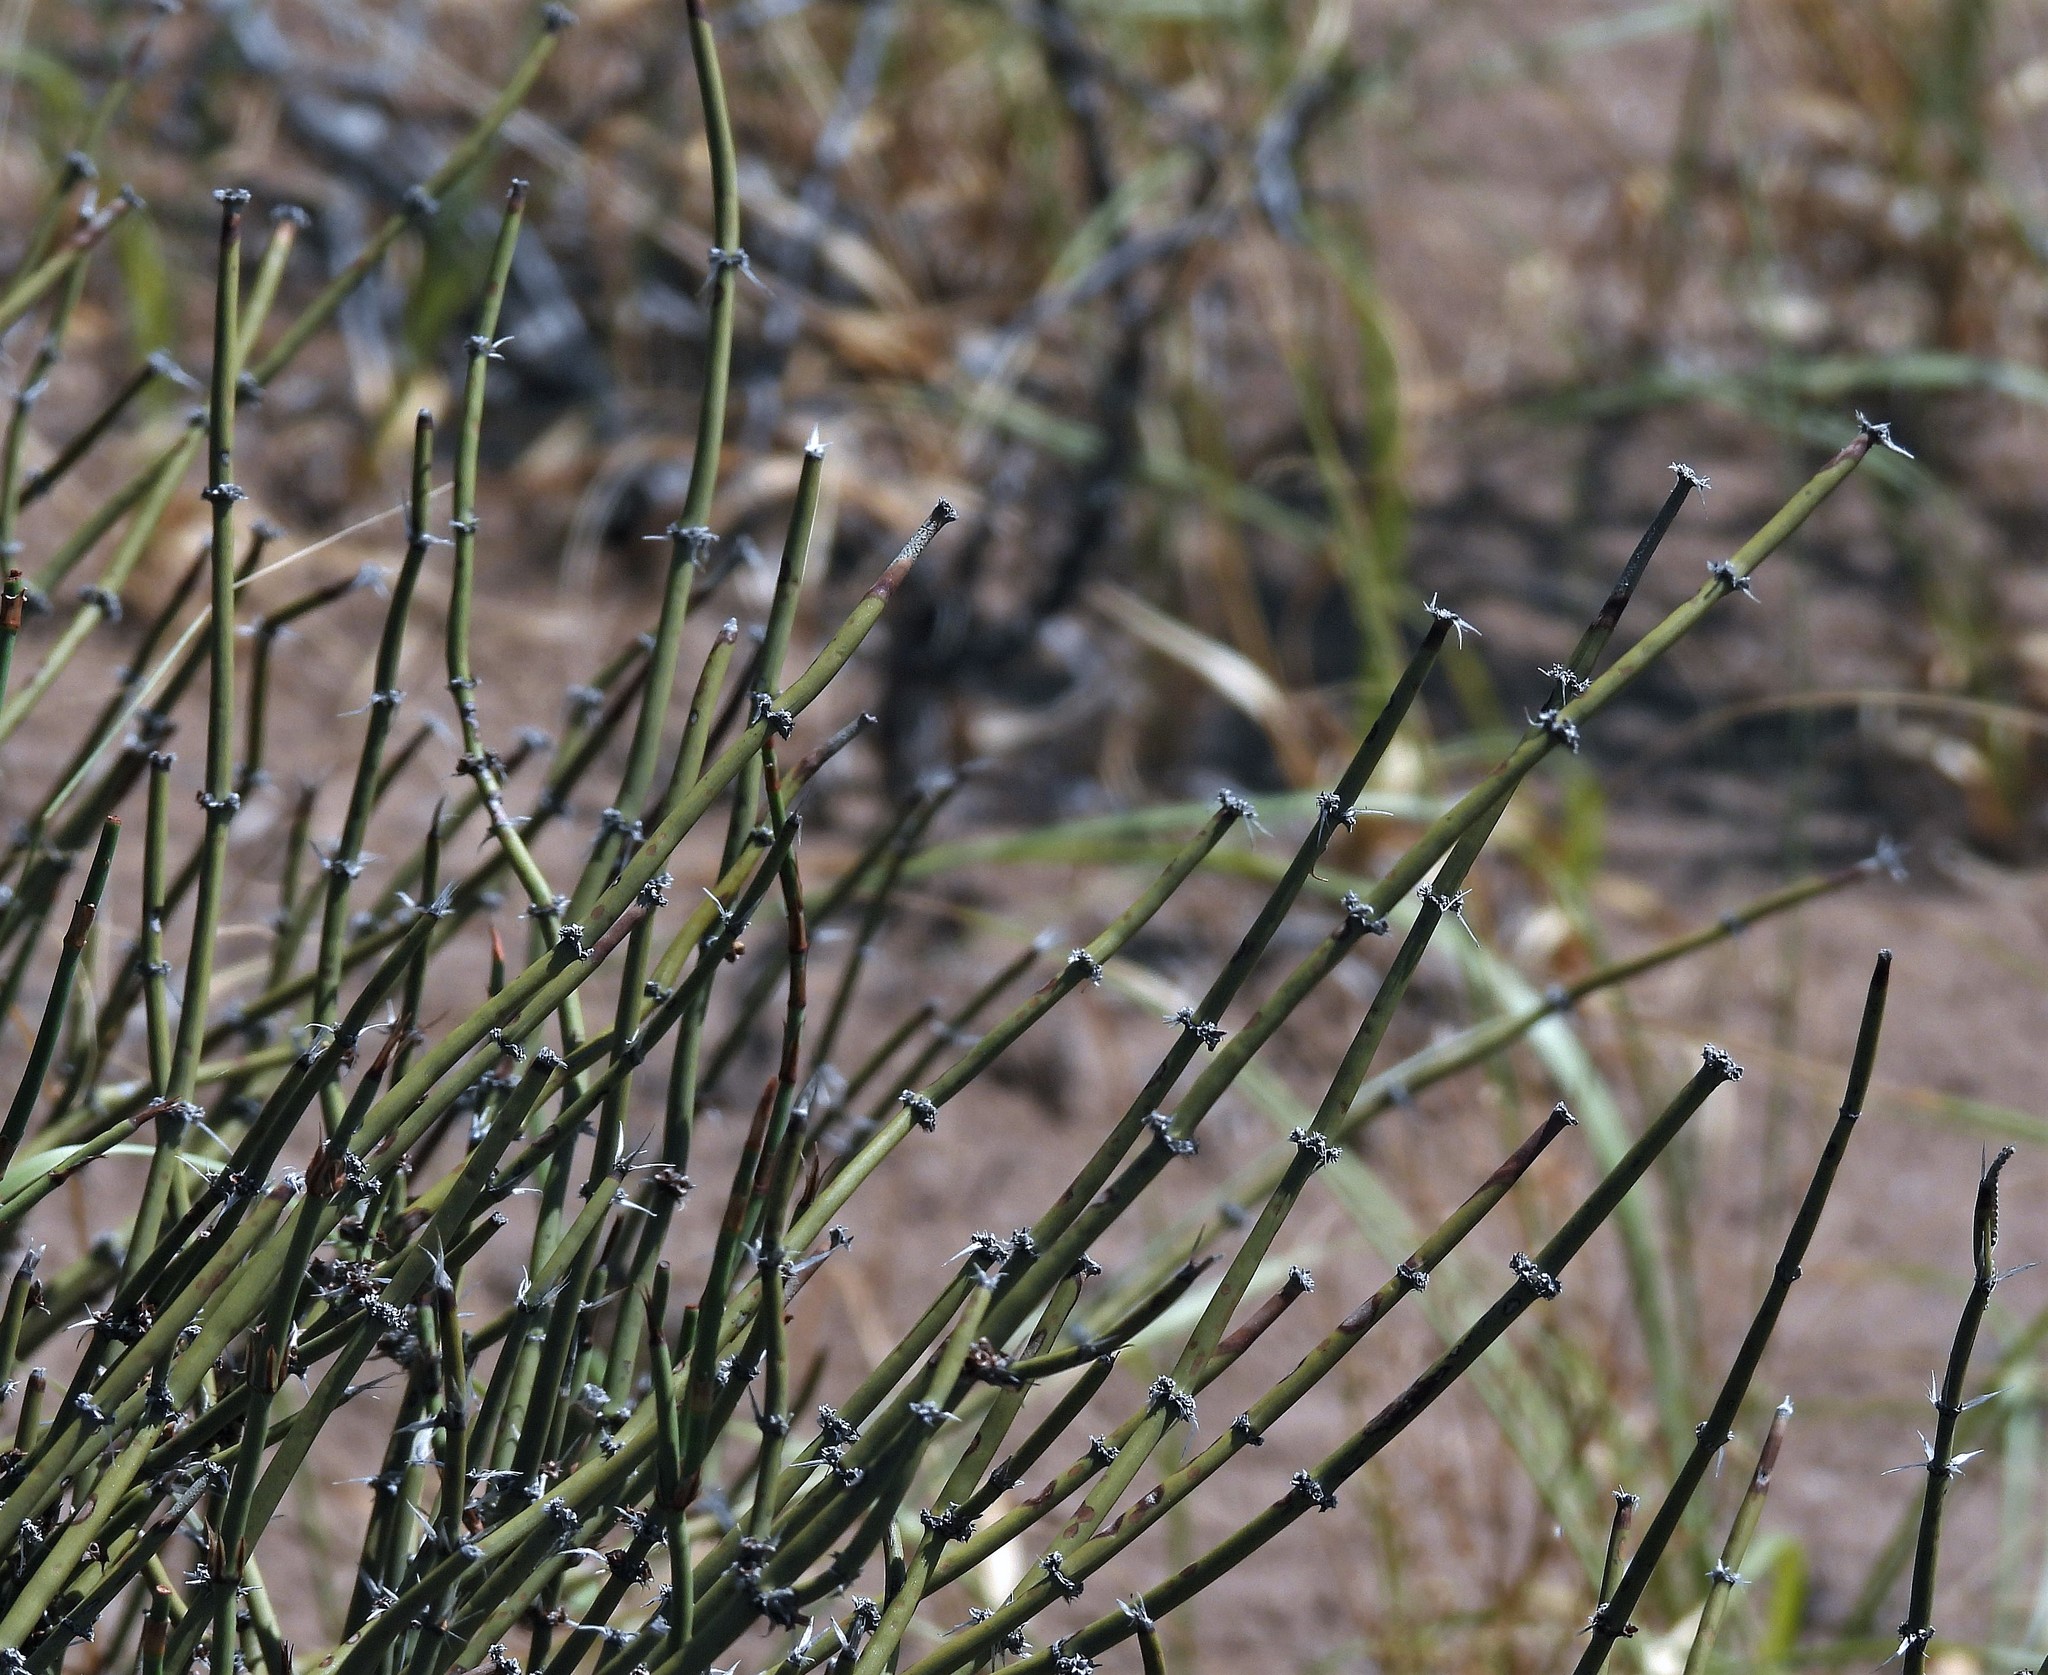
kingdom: Plantae
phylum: Tracheophyta
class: Gnetopsida
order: Ephedrales
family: Ephedraceae
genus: Ephedra
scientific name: Ephedra ochreata
